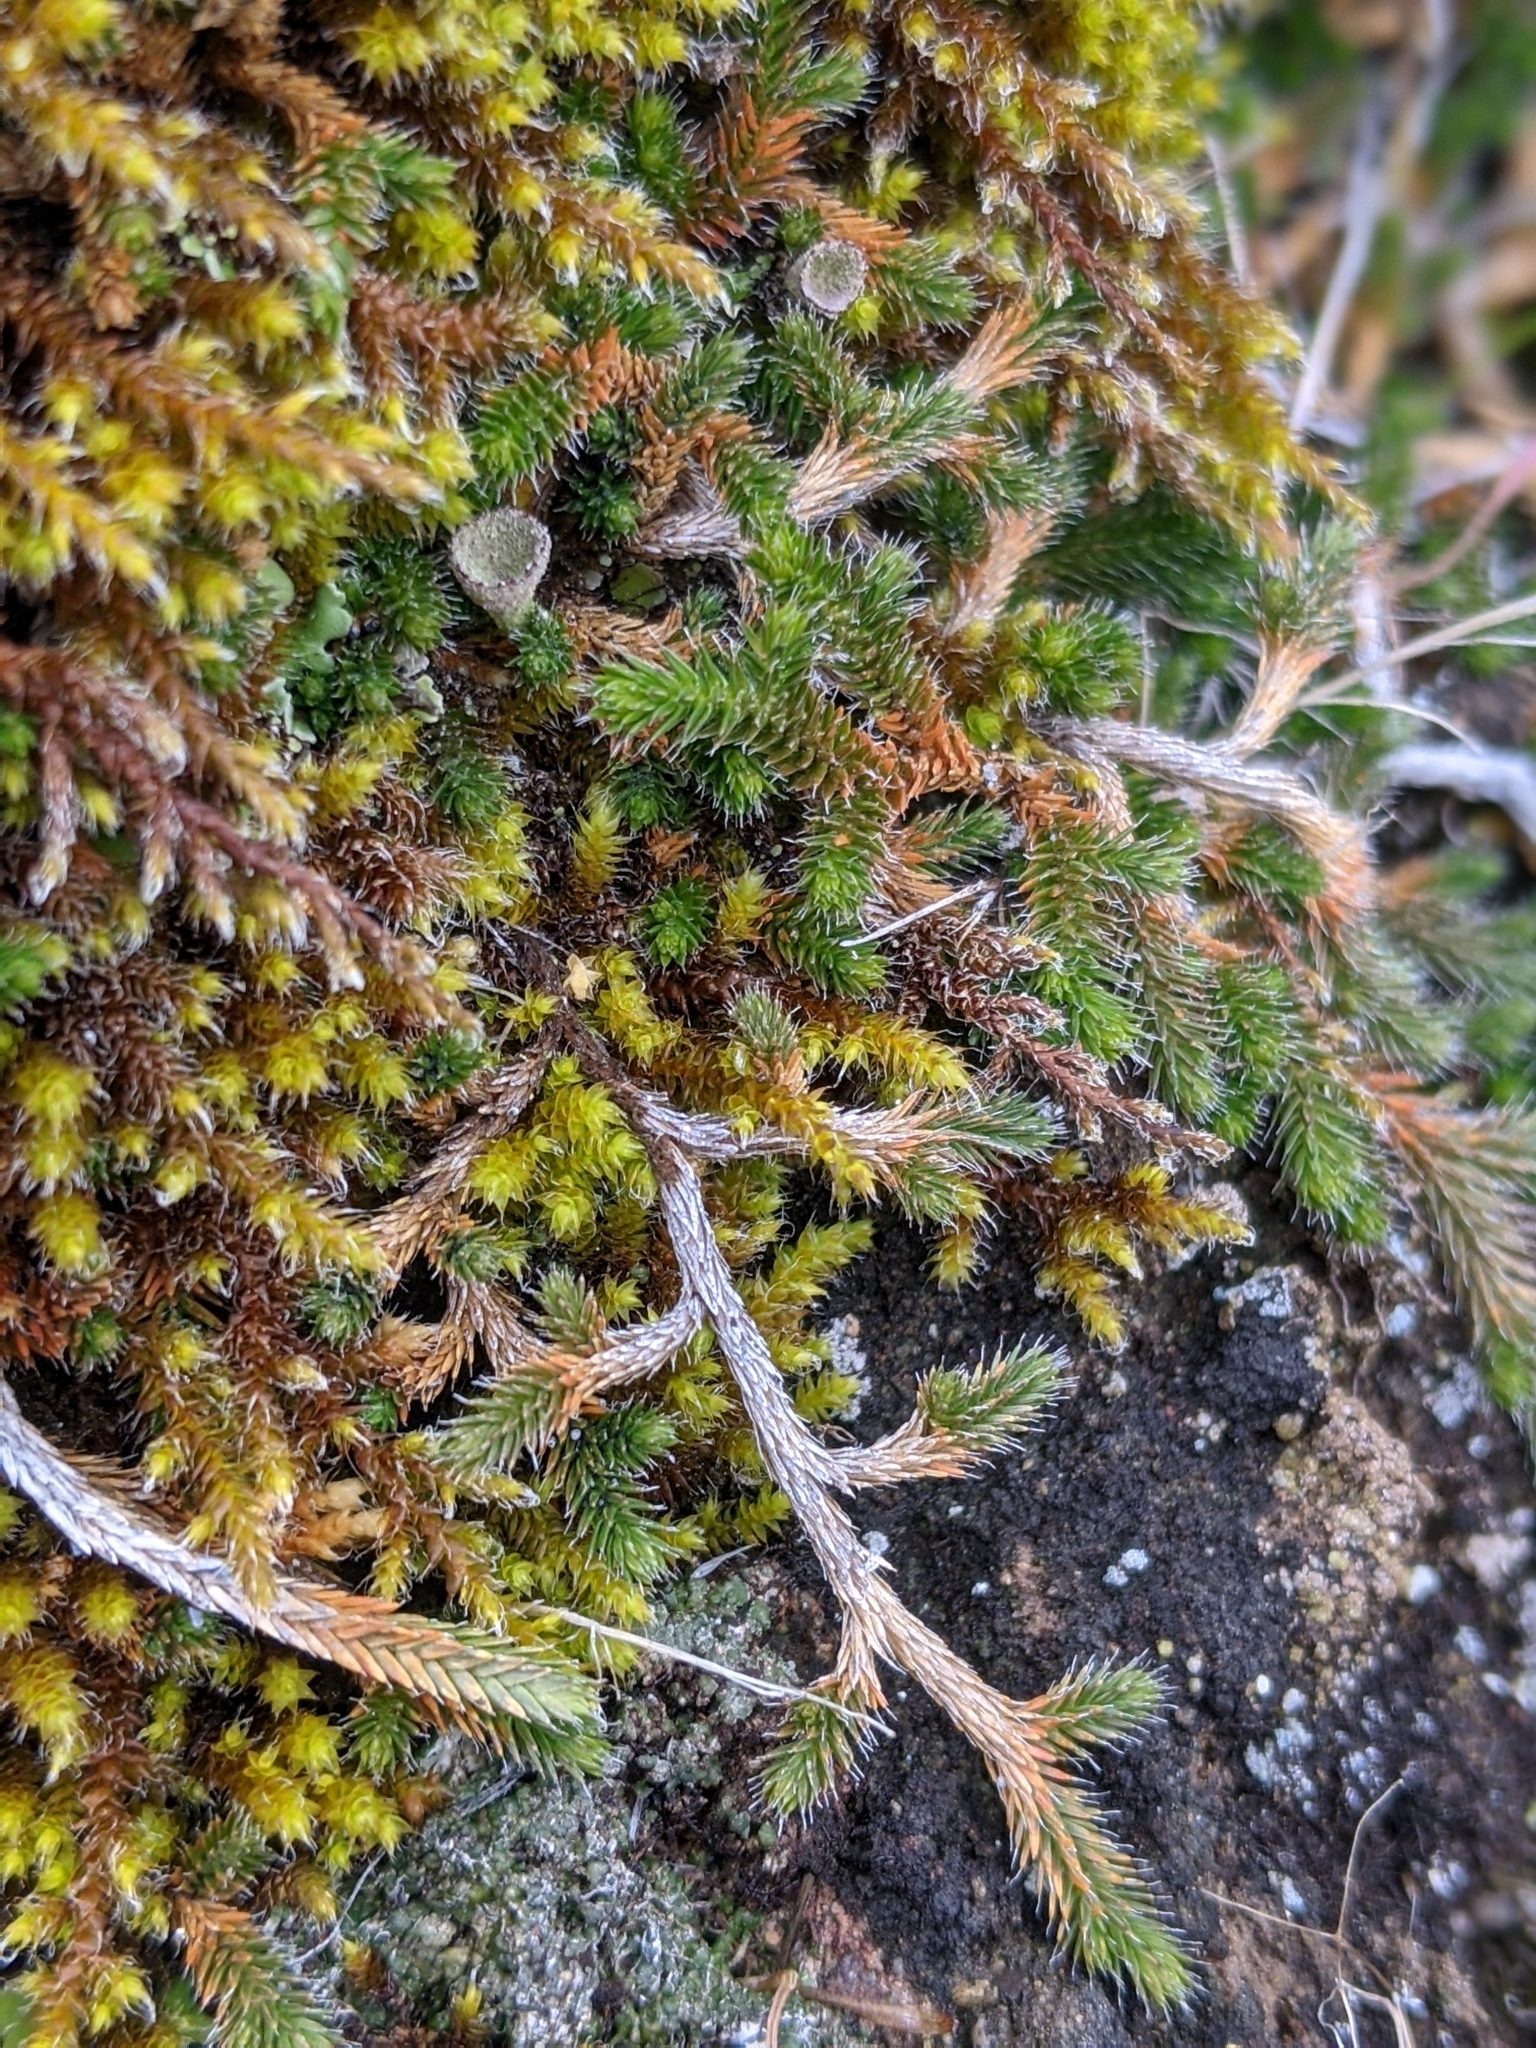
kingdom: Plantae
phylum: Tracheophyta
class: Lycopodiopsida
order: Selaginellales
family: Selaginellaceae
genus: Selaginella
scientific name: Selaginella wallacei
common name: Wallace's selaginella
